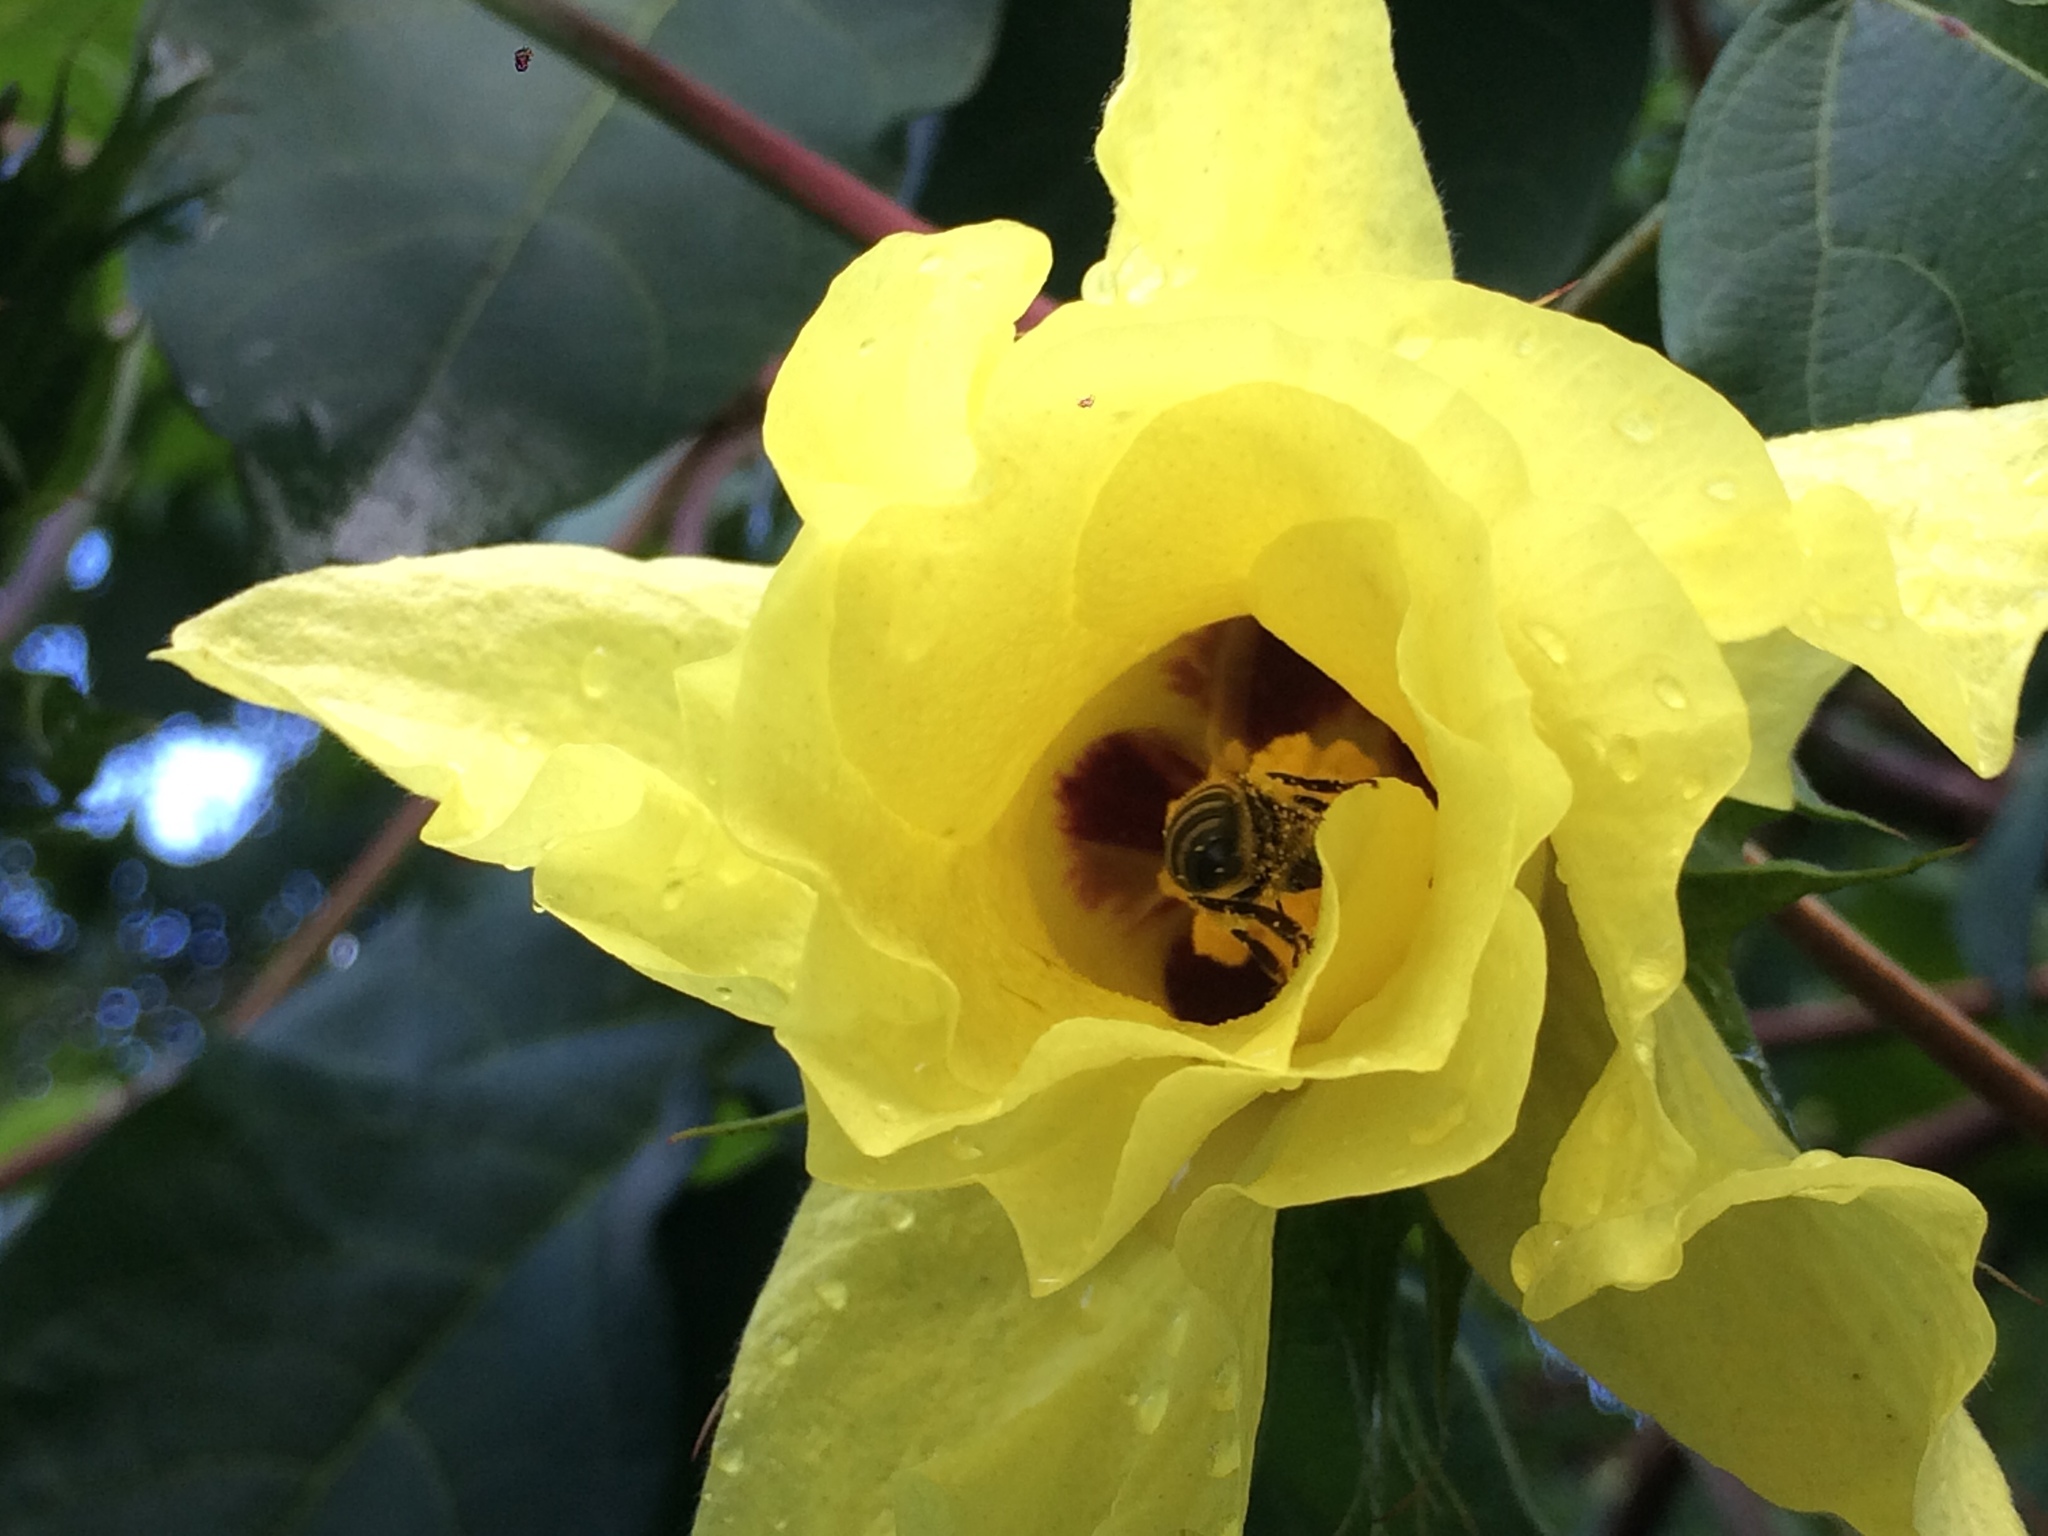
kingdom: Animalia
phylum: Arthropoda
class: Insecta
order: Hymenoptera
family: Apidae
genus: Apis
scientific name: Apis mellifera
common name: Honey bee
